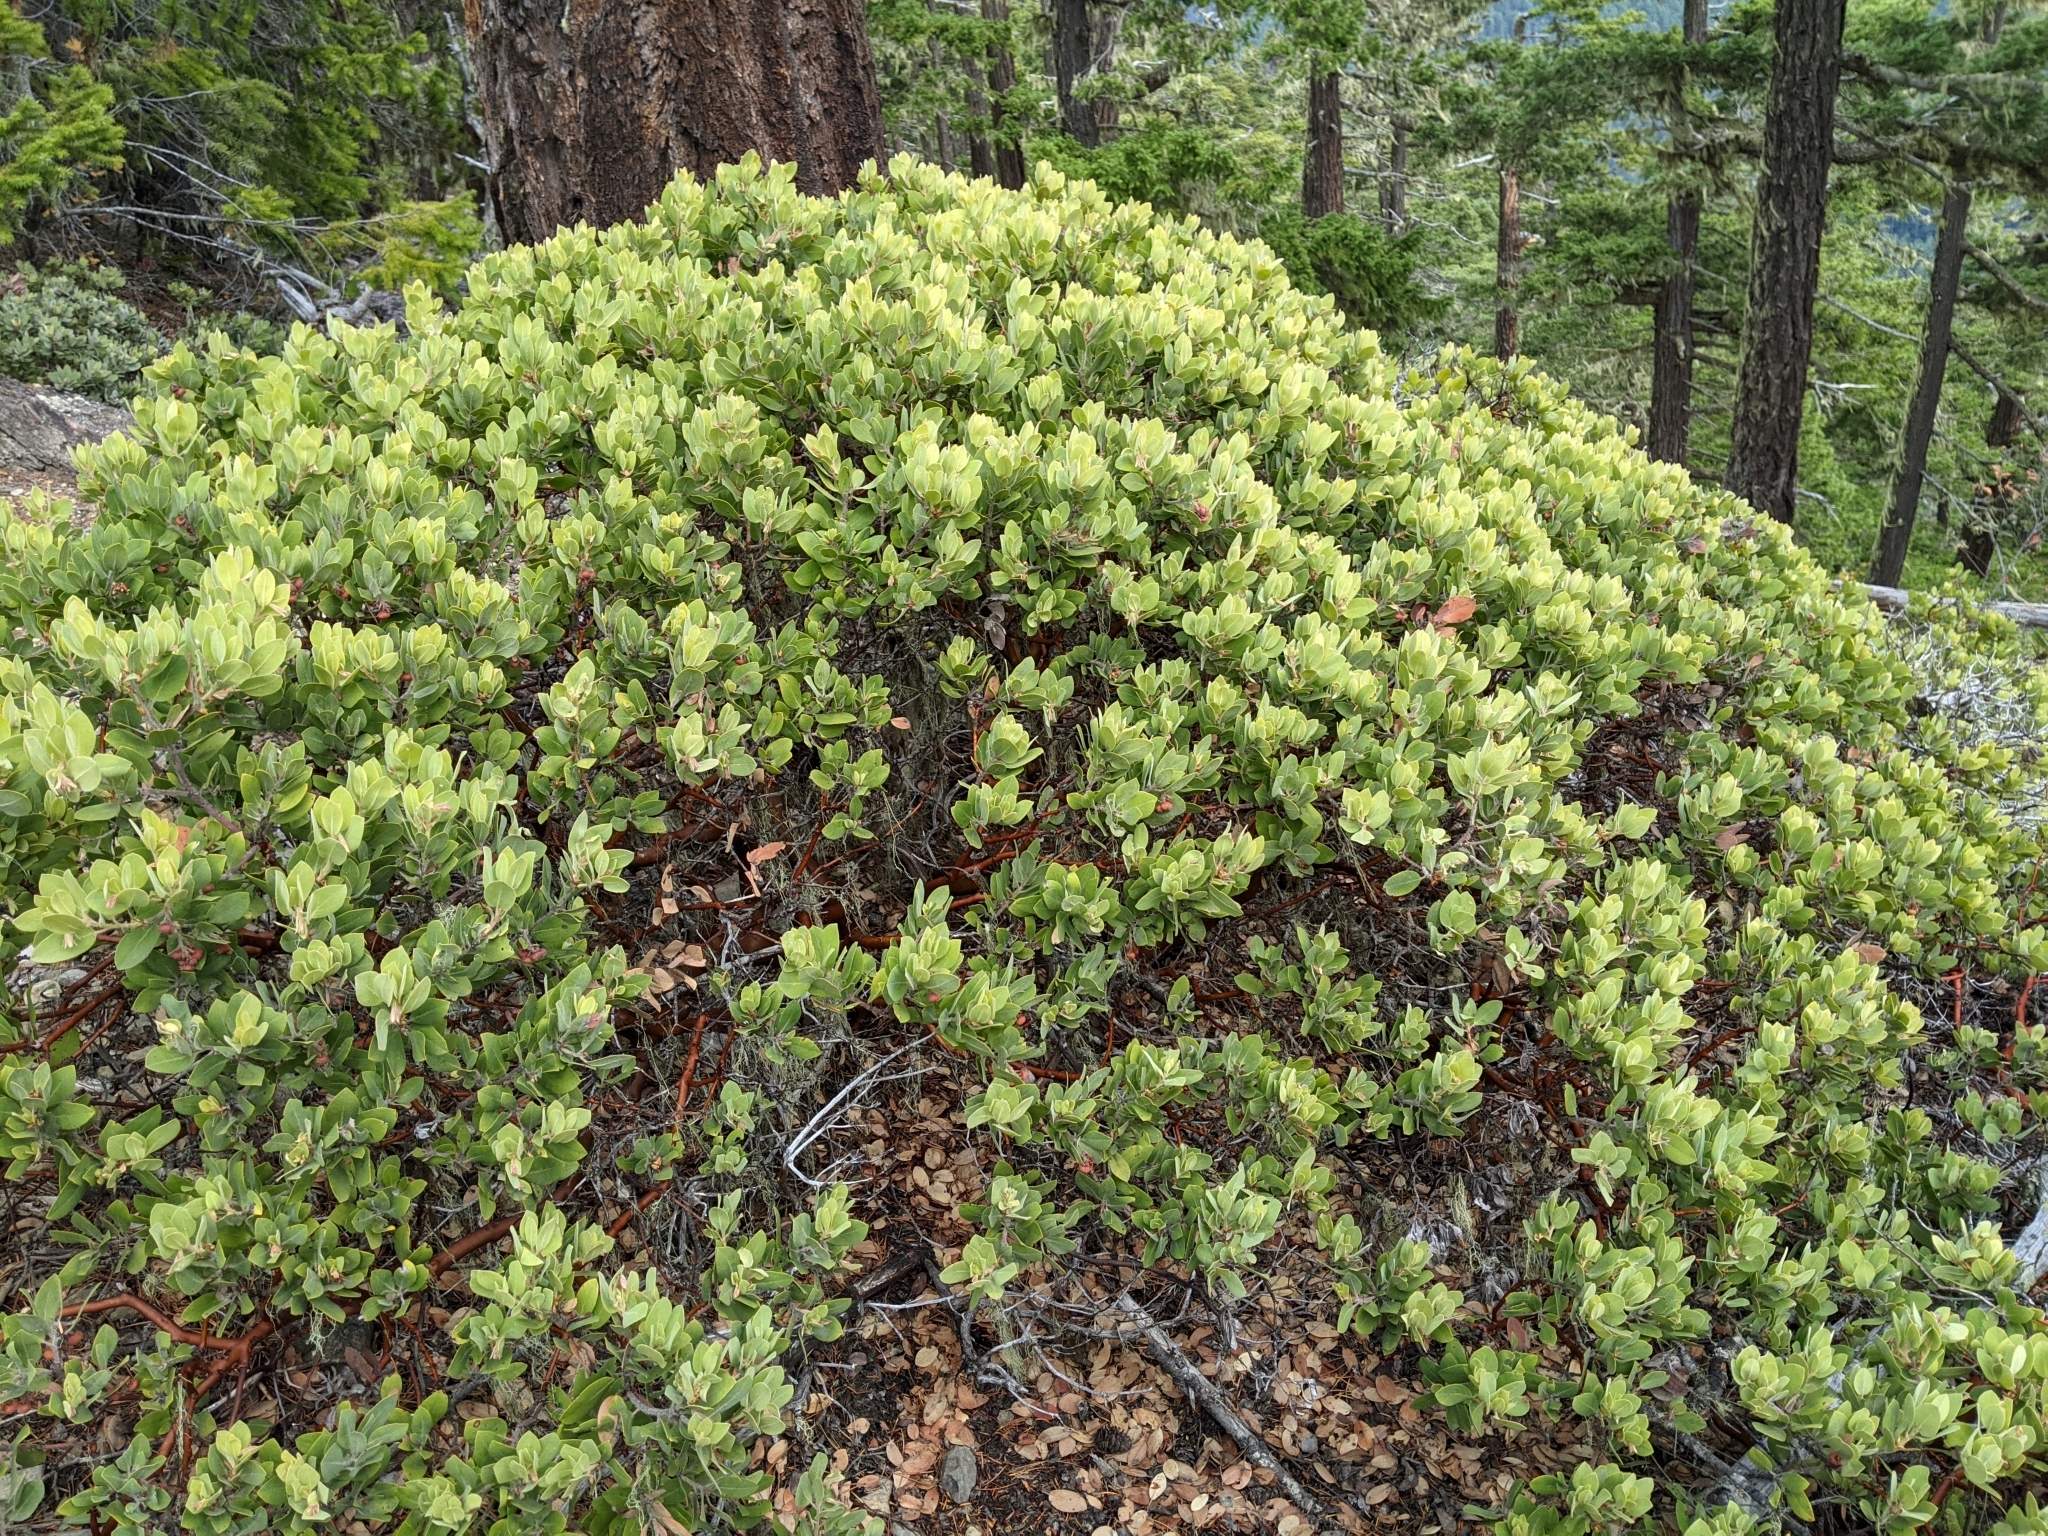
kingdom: Plantae
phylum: Tracheophyta
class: Magnoliopsida
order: Ericales
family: Ericaceae
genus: Arctostaphylos
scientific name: Arctostaphylos columbiana
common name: Bristly bearberry
